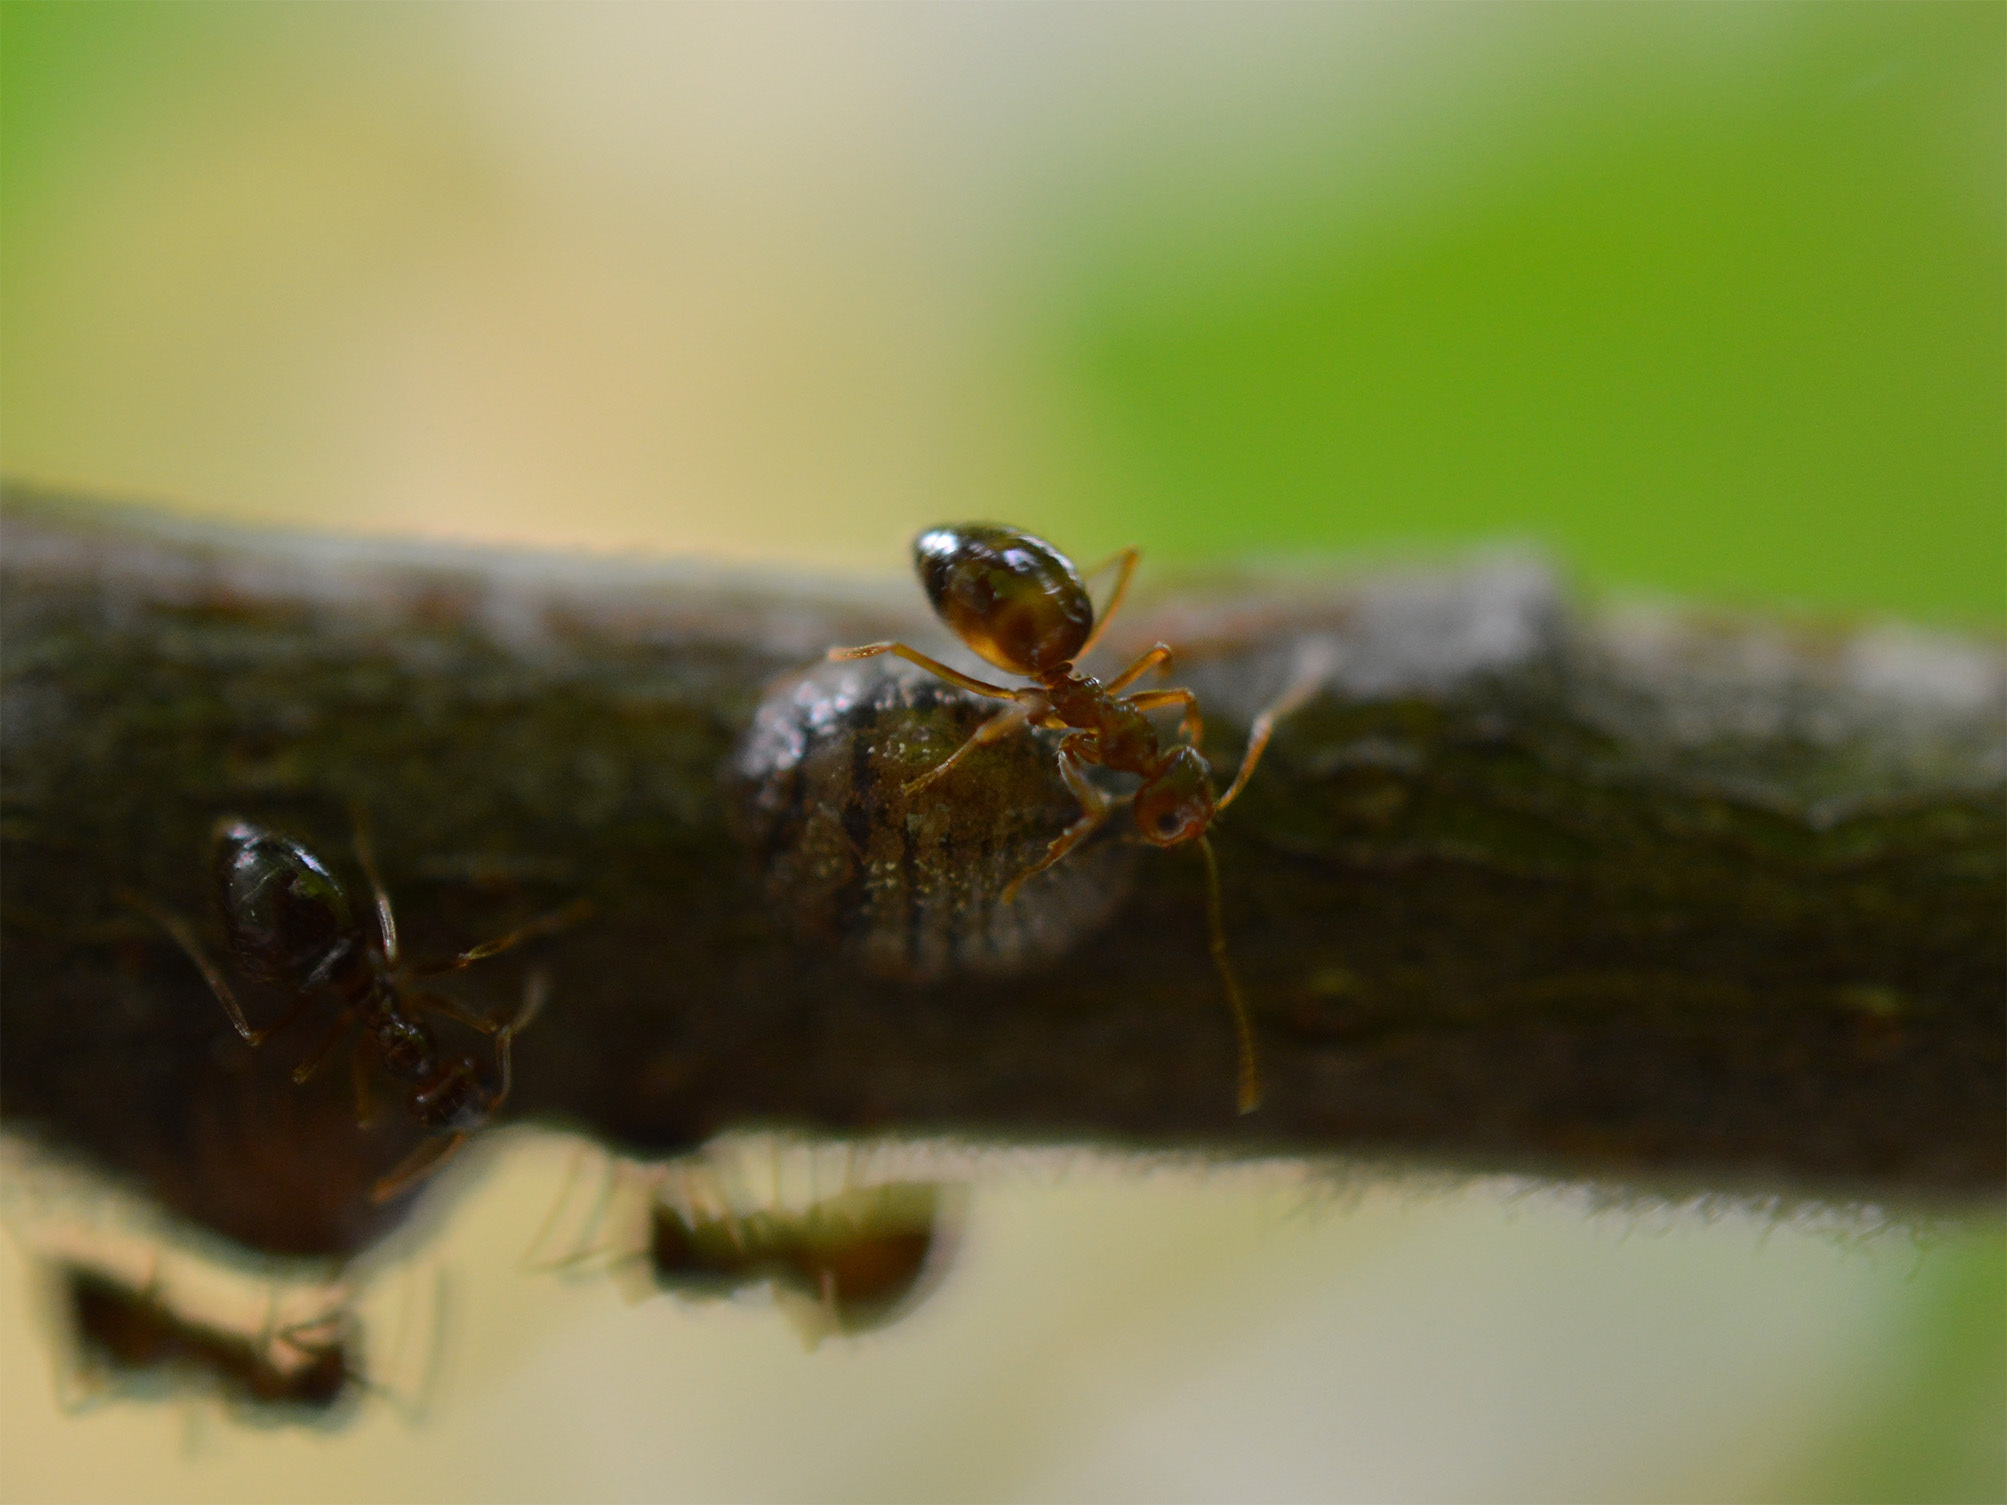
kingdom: Animalia
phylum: Arthropoda
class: Insecta
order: Hymenoptera
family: Formicidae
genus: Prenolepis
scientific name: Prenolepis nitens
